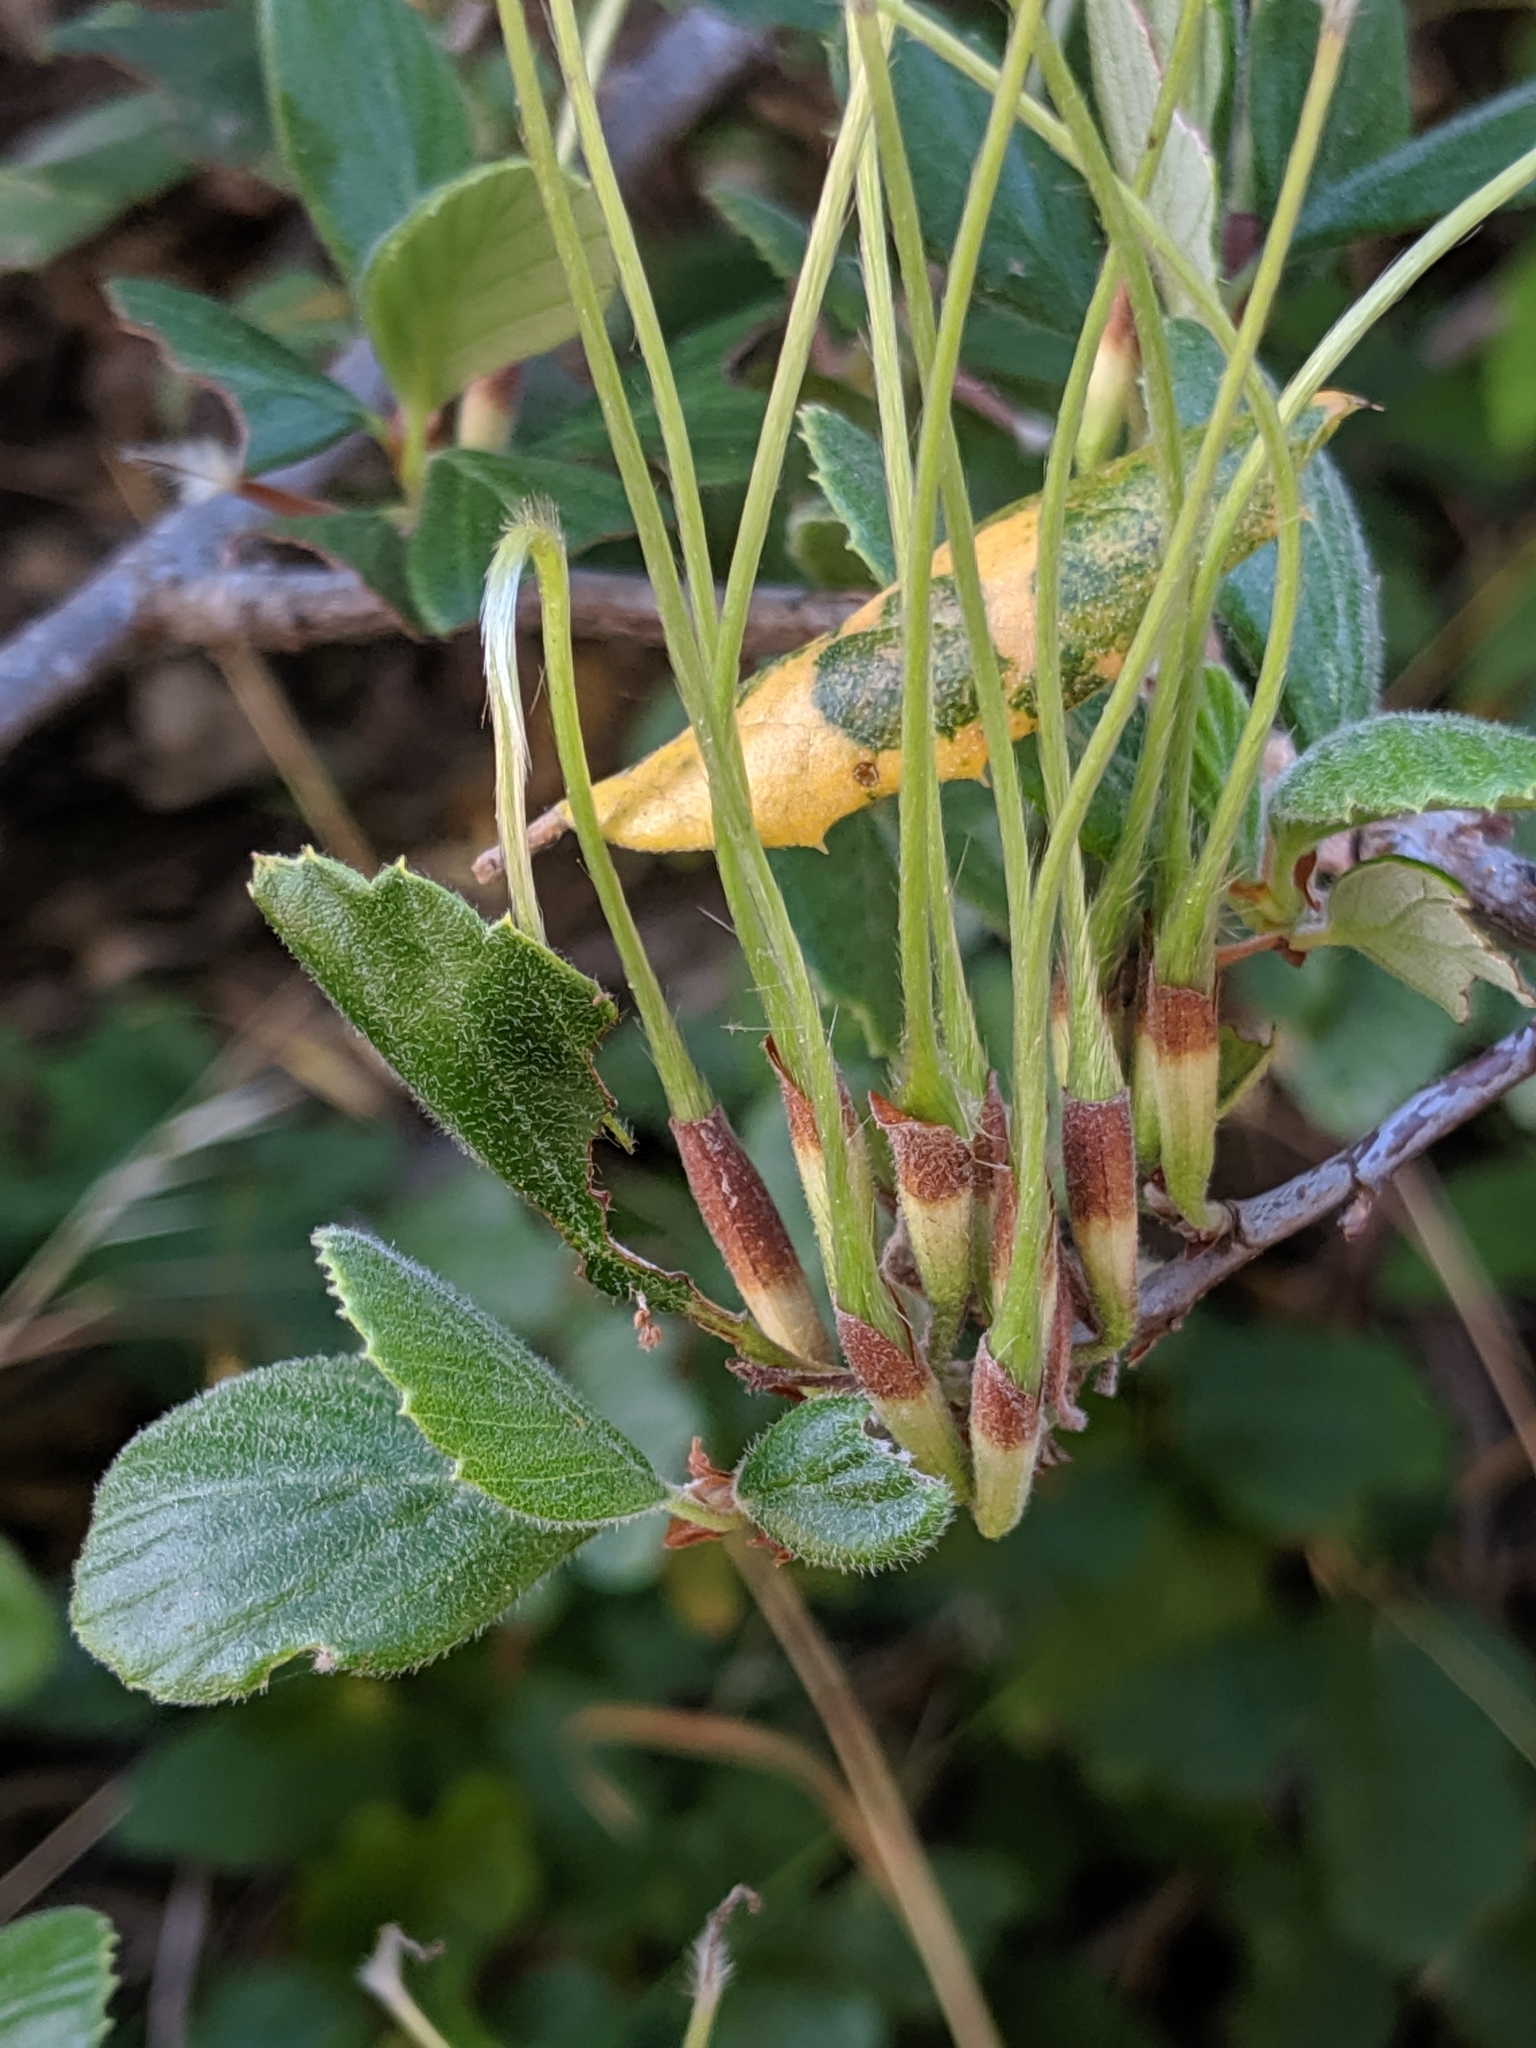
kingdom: Plantae
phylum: Tracheophyta
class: Magnoliopsida
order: Rosales
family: Rosaceae
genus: Cercocarpus
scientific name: Cercocarpus betuloides
